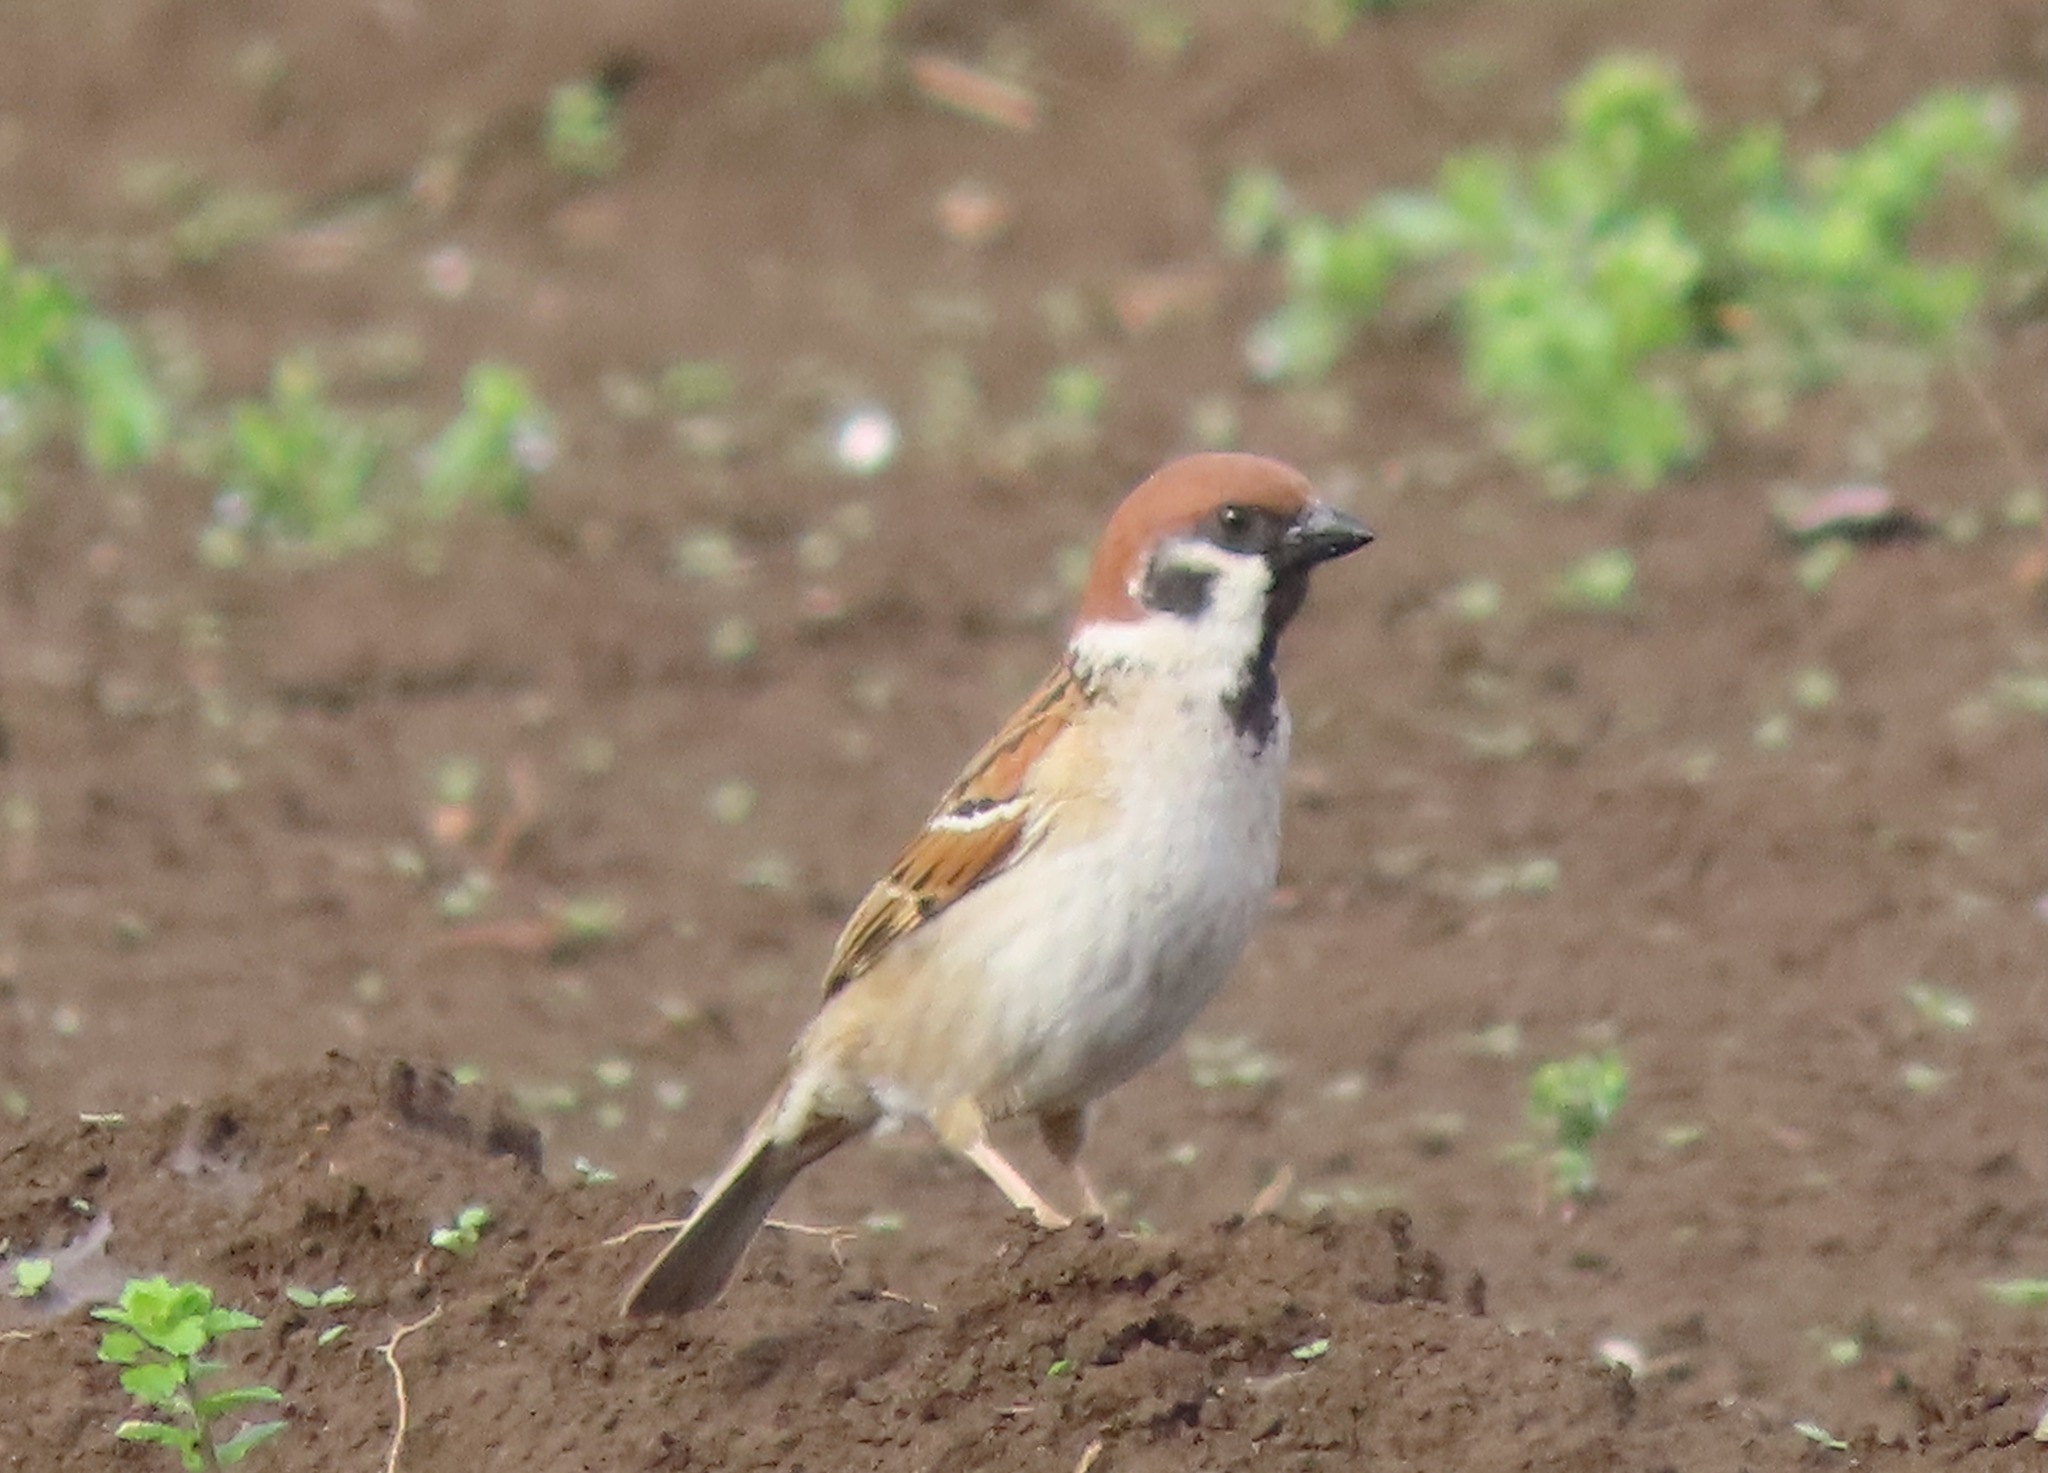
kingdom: Animalia
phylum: Chordata
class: Aves
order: Passeriformes
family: Passeridae
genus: Passer
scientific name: Passer montanus
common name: Eurasian tree sparrow
